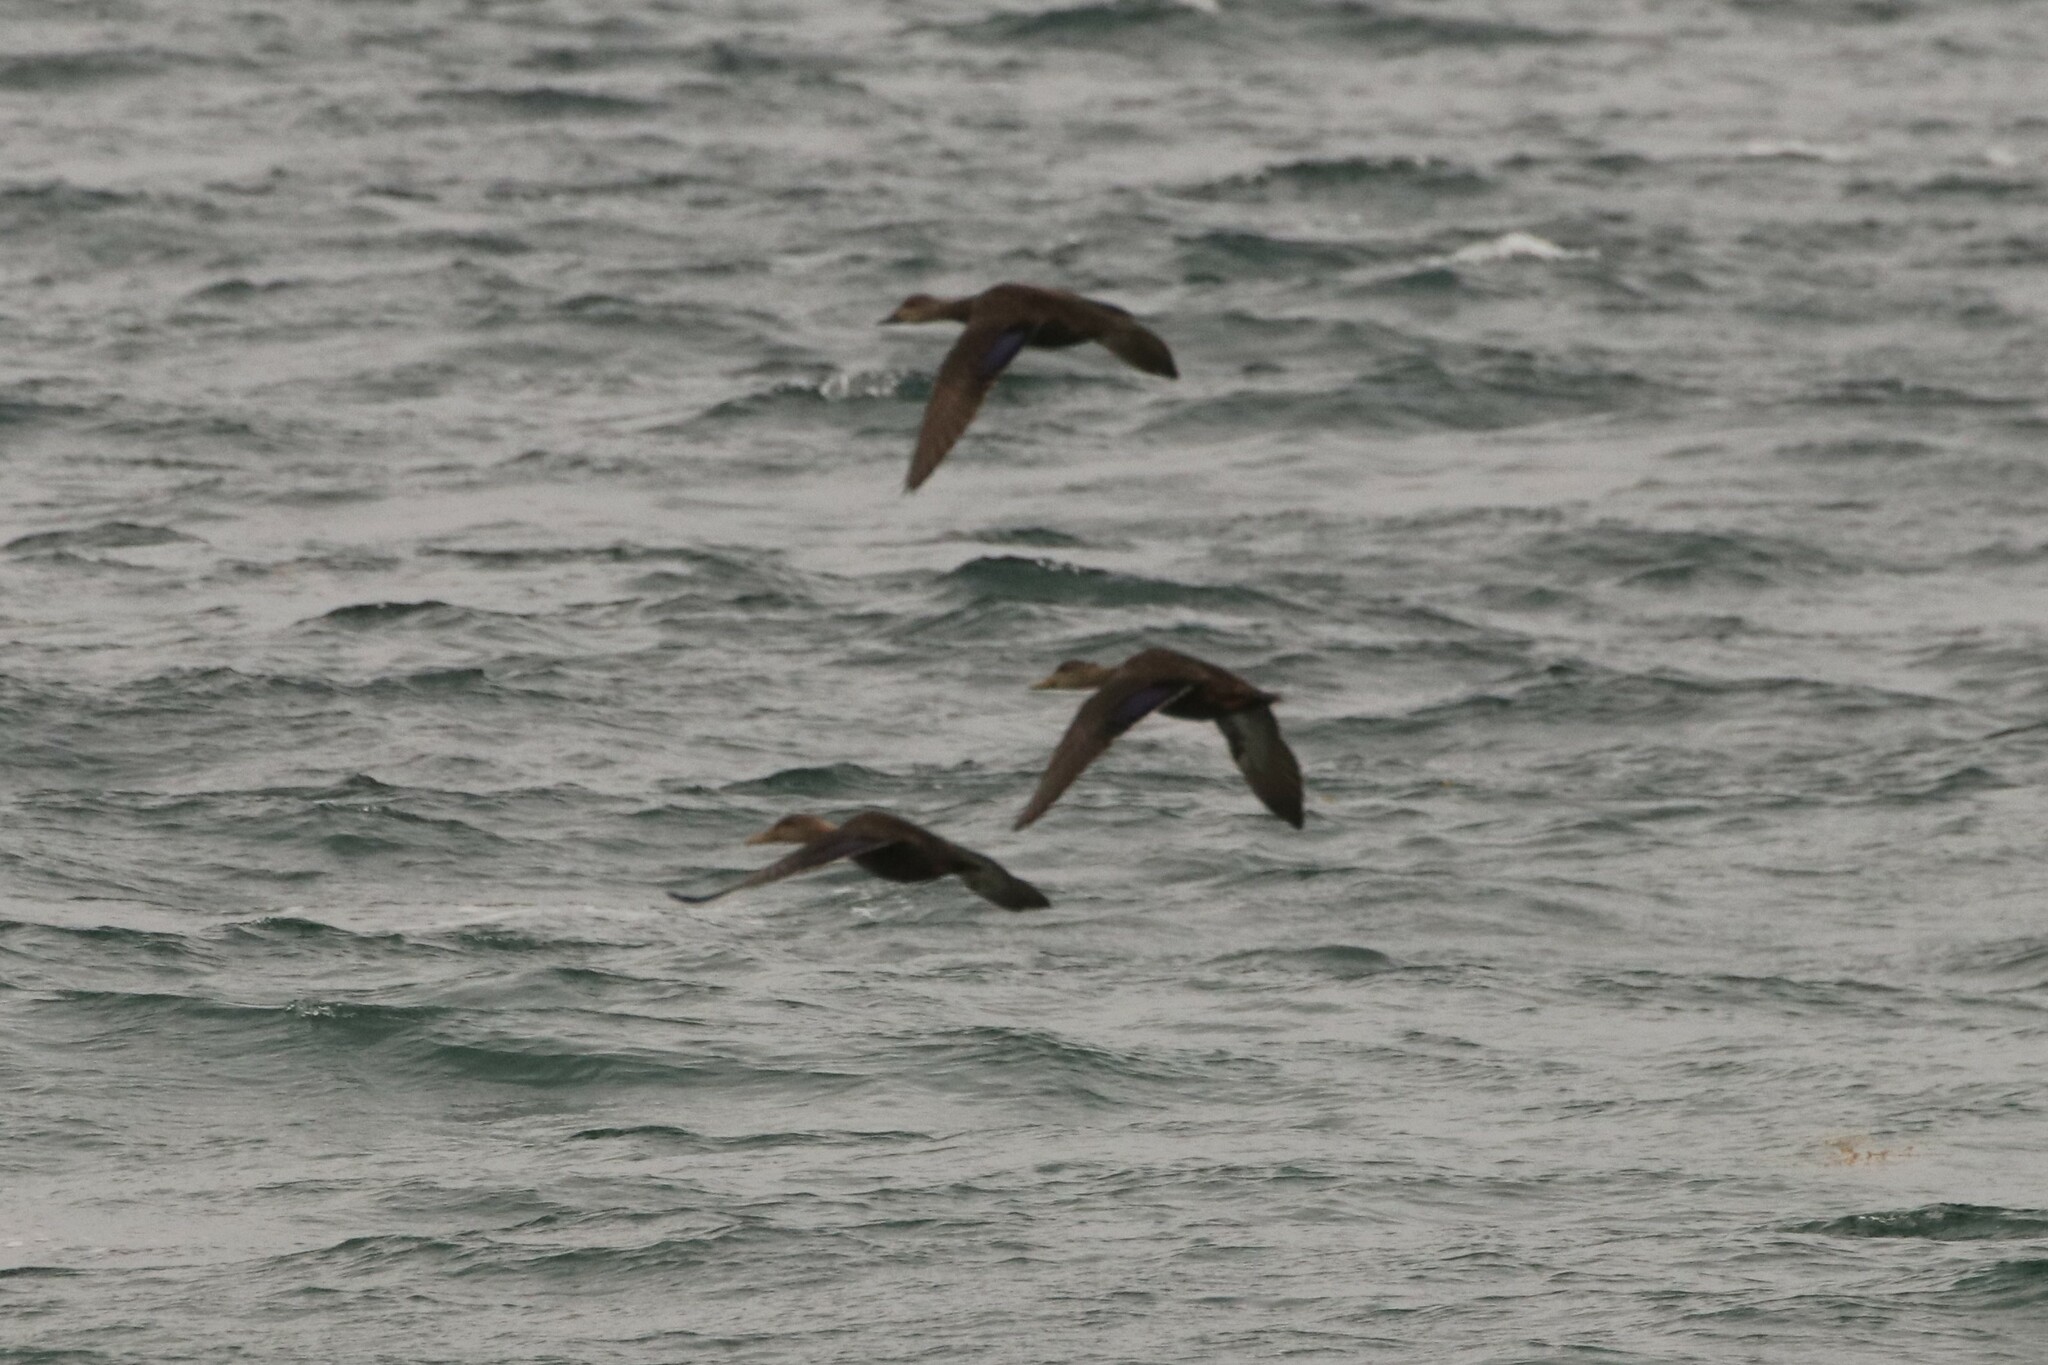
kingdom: Animalia
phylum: Chordata
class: Aves
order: Anseriformes
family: Anatidae
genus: Anas
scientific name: Anas rubripes
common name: American black duck
